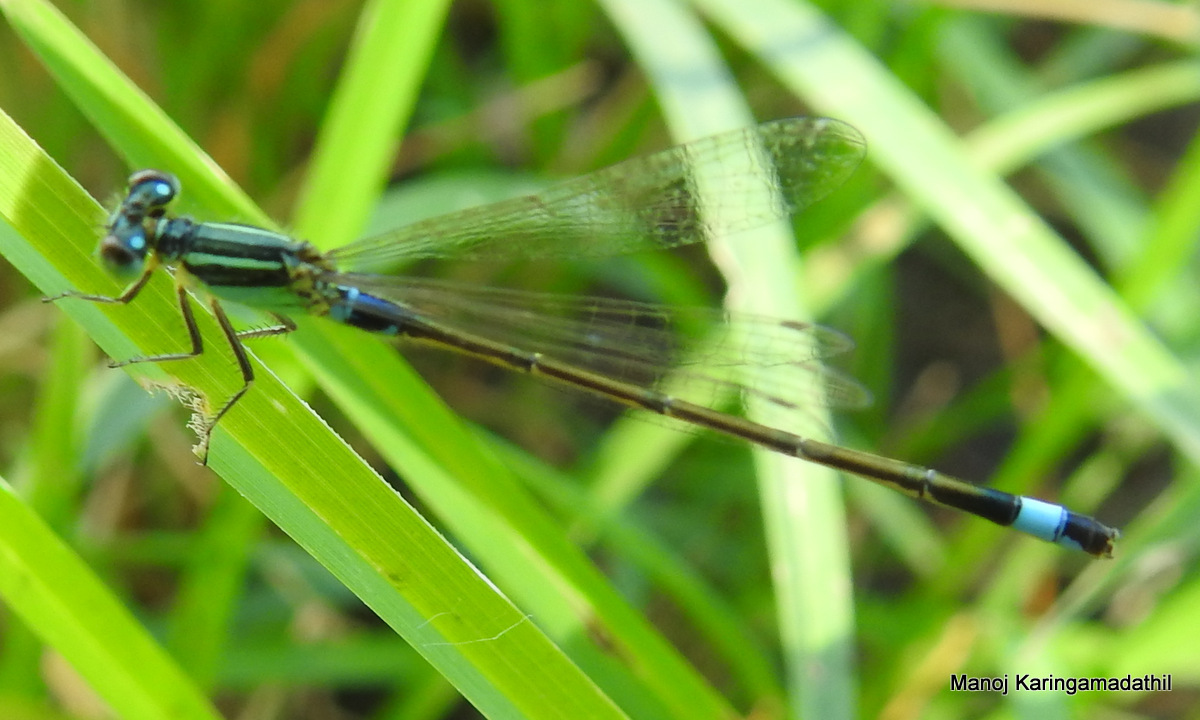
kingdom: Animalia
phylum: Arthropoda
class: Insecta
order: Odonata
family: Coenagrionidae
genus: Ischnura
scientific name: Ischnura senegalensis
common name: Tropical bluetail
